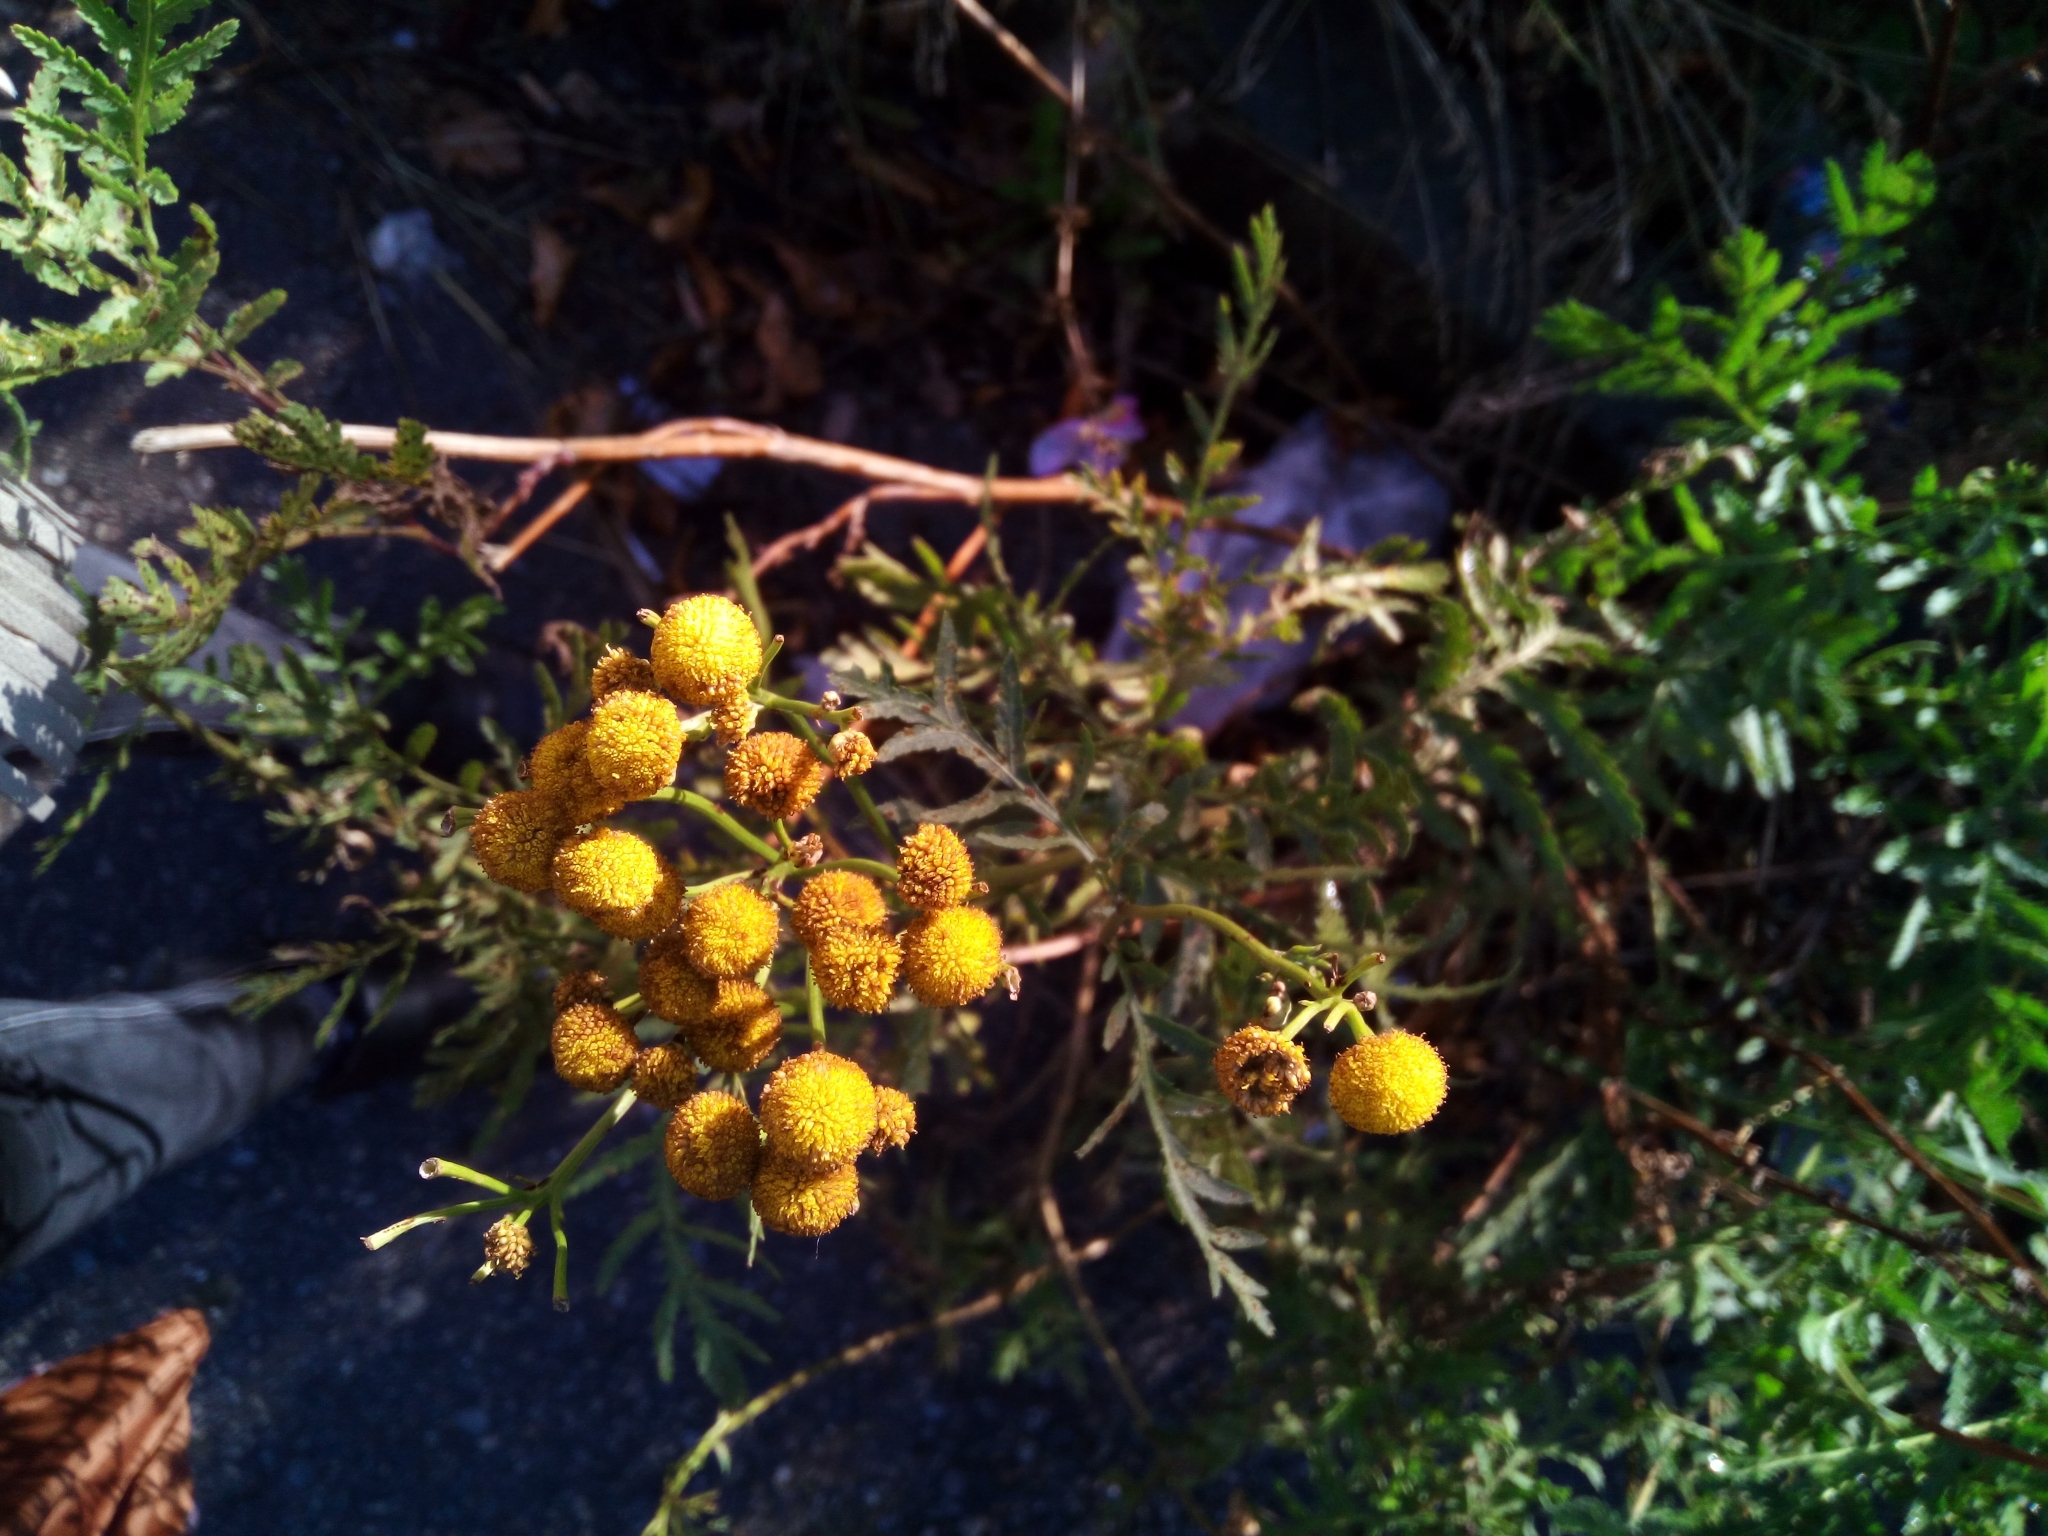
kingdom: Plantae
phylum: Tracheophyta
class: Magnoliopsida
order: Asterales
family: Asteraceae
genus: Tanacetum
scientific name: Tanacetum vulgare
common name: Common tansy
